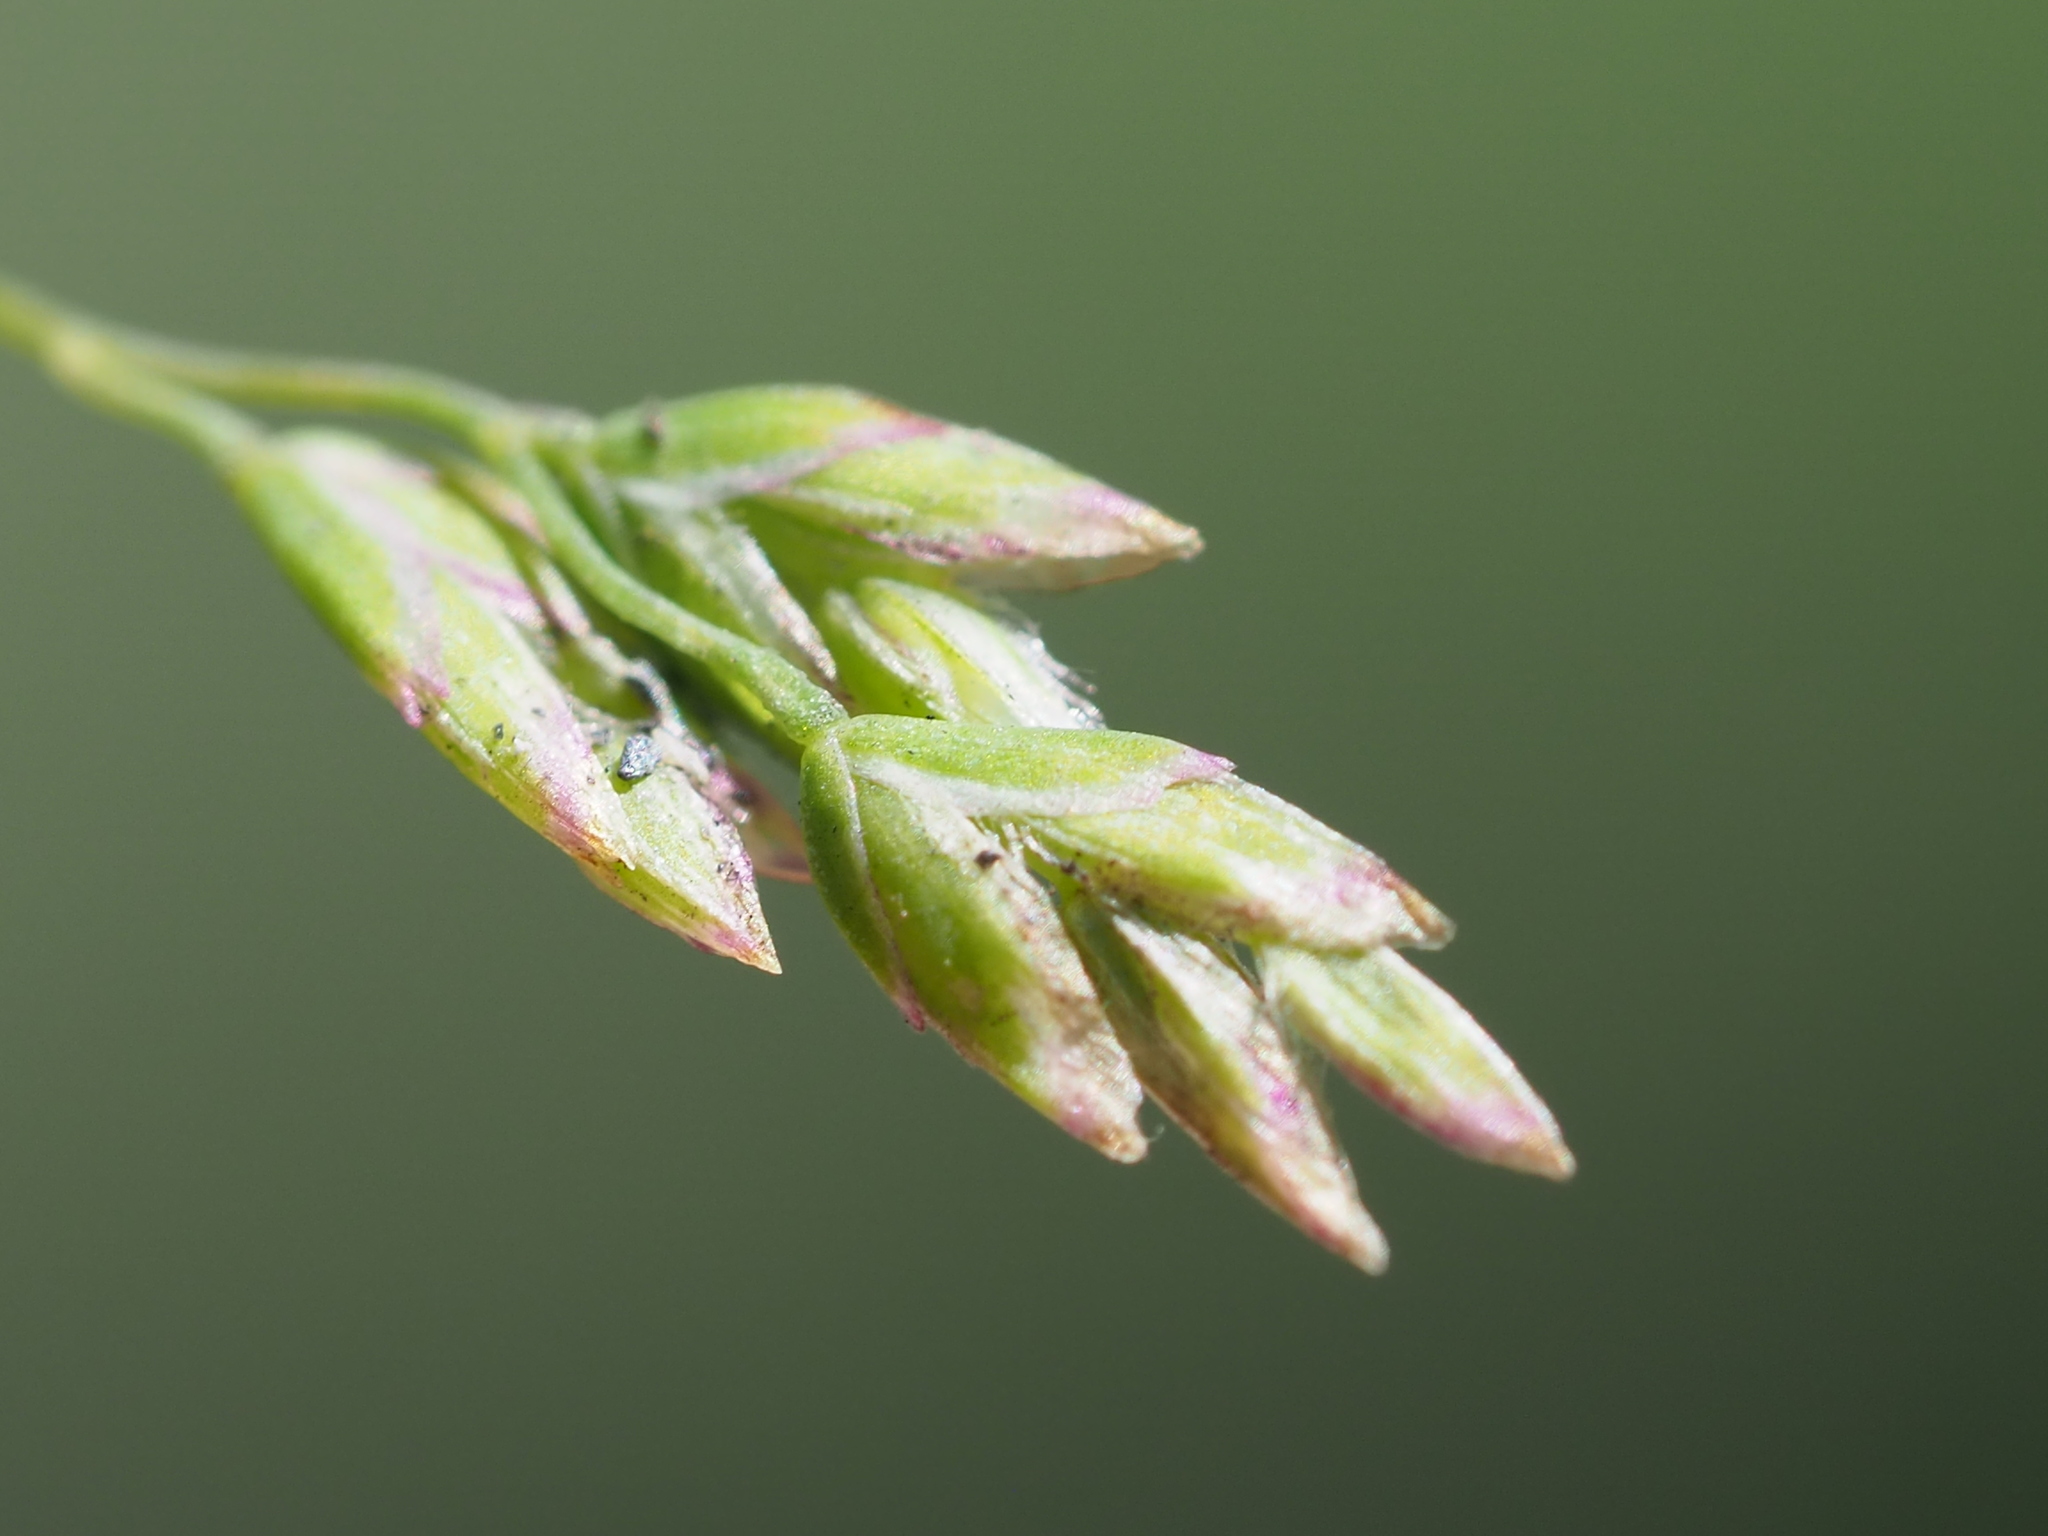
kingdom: Plantae
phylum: Tracheophyta
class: Liliopsida
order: Poales
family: Poaceae
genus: Poa
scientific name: Poa annua
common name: Annual bluegrass
